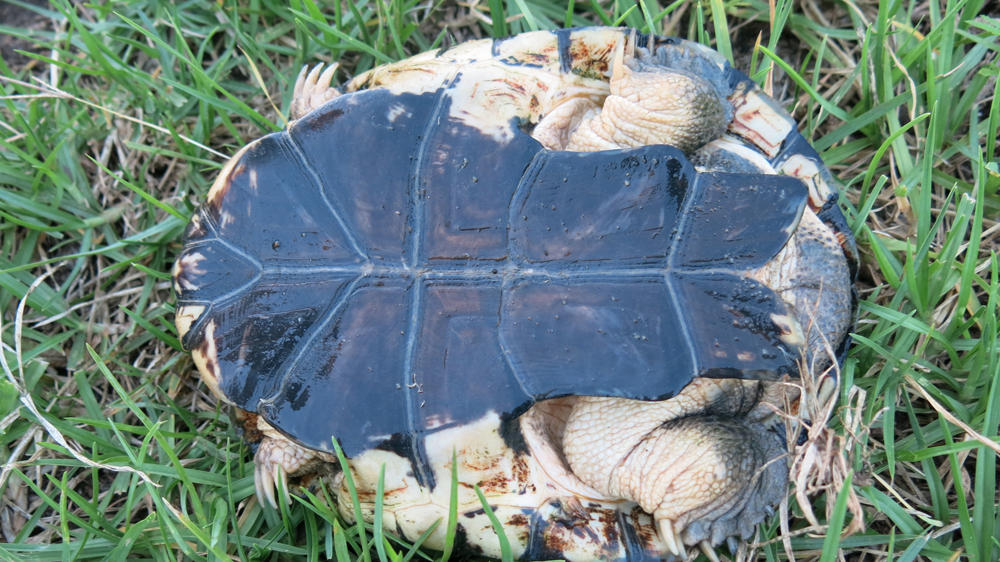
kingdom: Animalia
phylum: Chordata
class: Testudines
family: Pelomedusidae
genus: Pelomedusa
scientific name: Pelomedusa galeata
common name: South african helmeted terrapin
